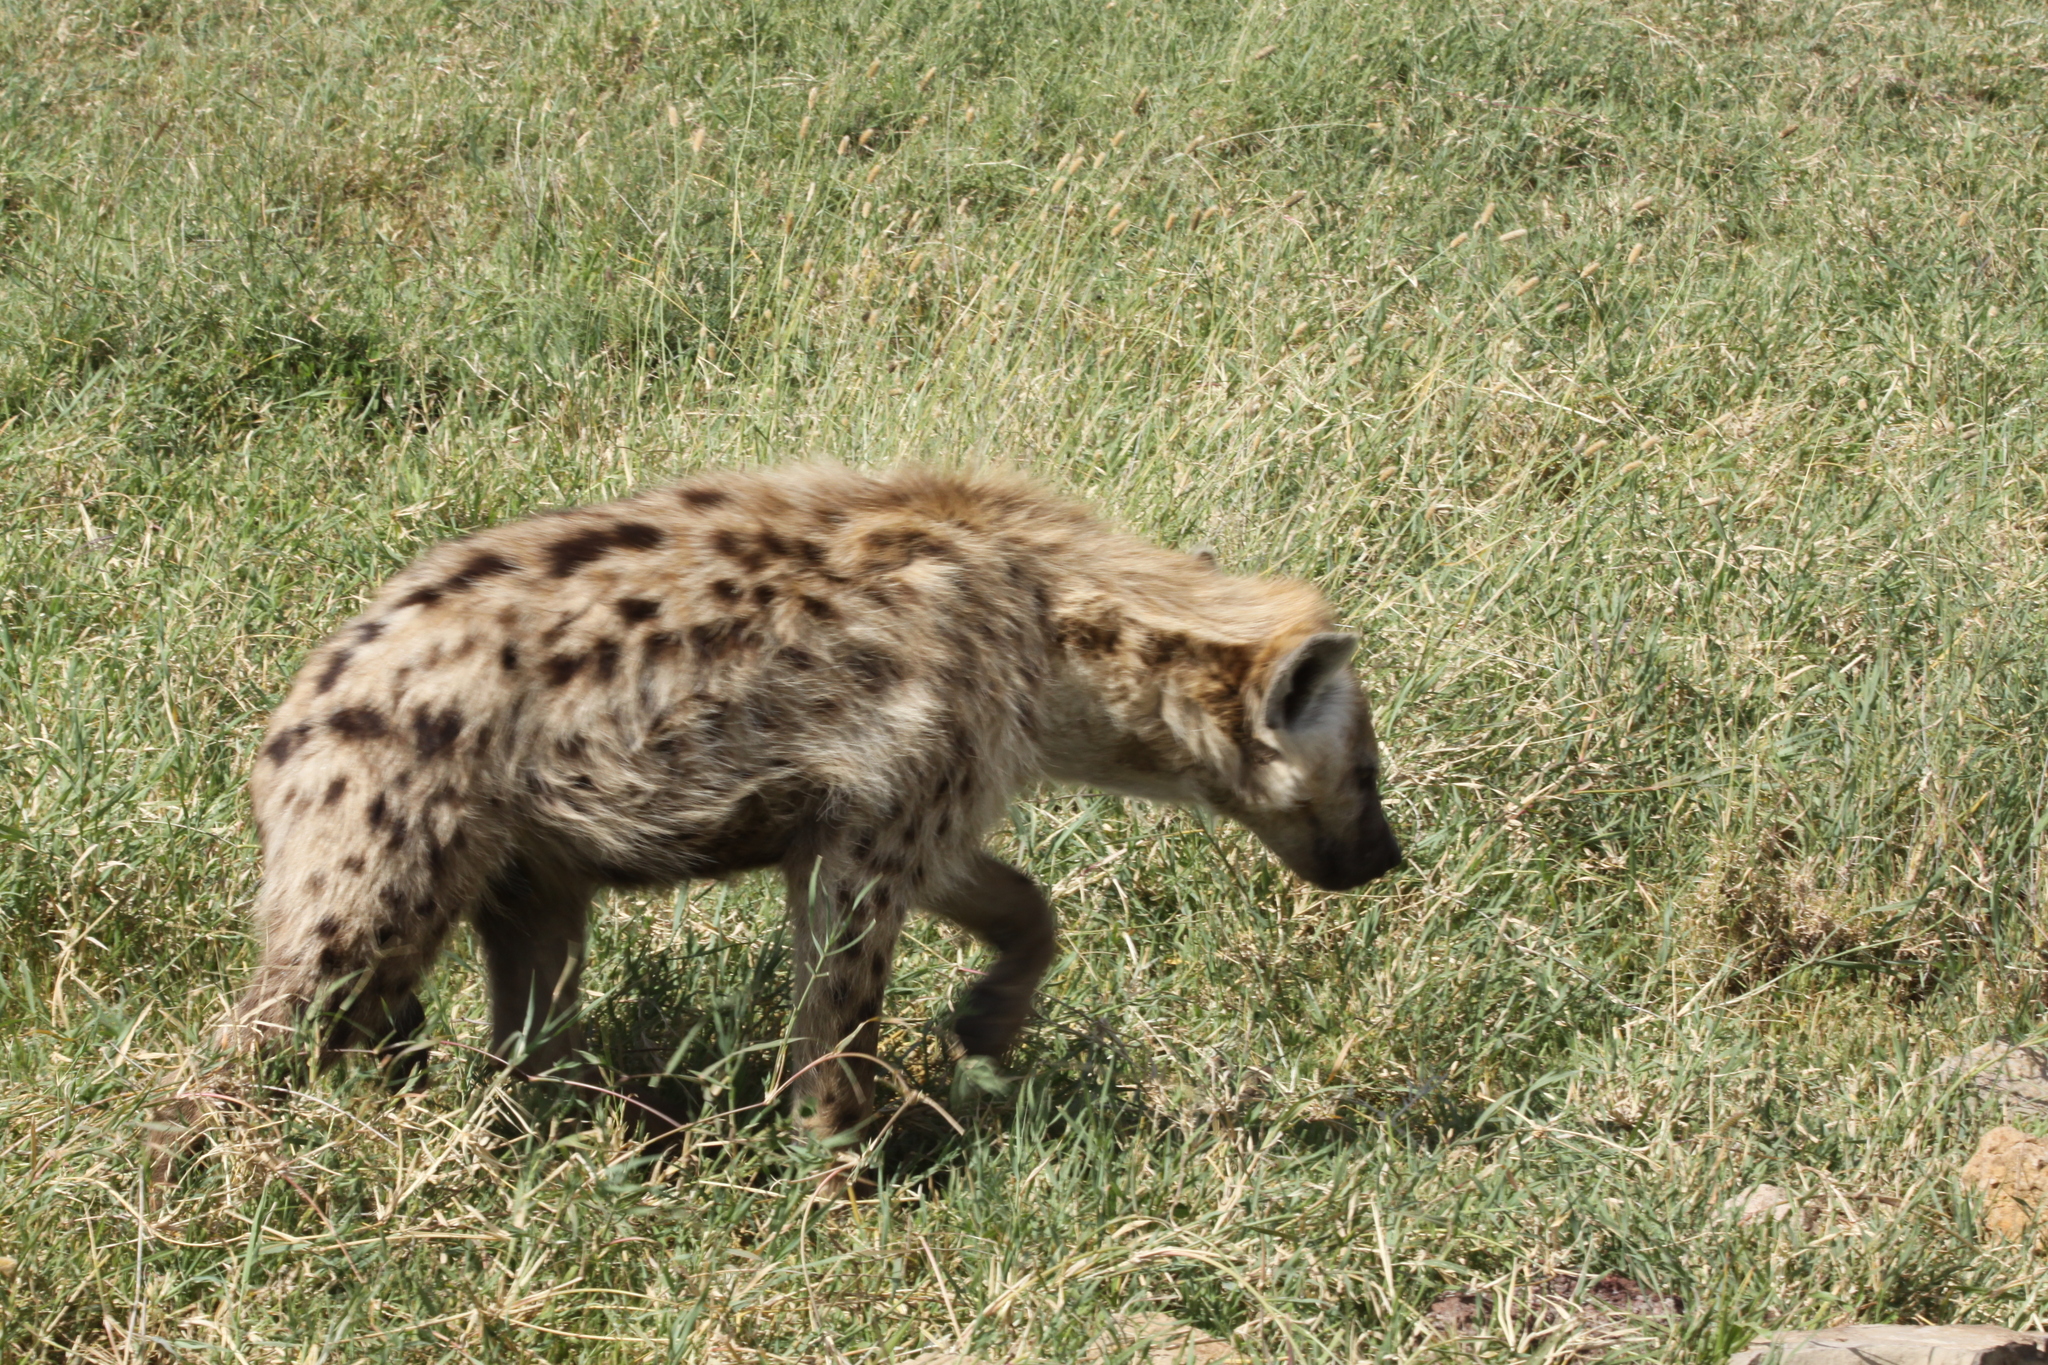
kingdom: Animalia
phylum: Chordata
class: Mammalia
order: Carnivora
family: Hyaenidae
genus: Crocuta
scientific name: Crocuta crocuta
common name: Spotted hyaena
